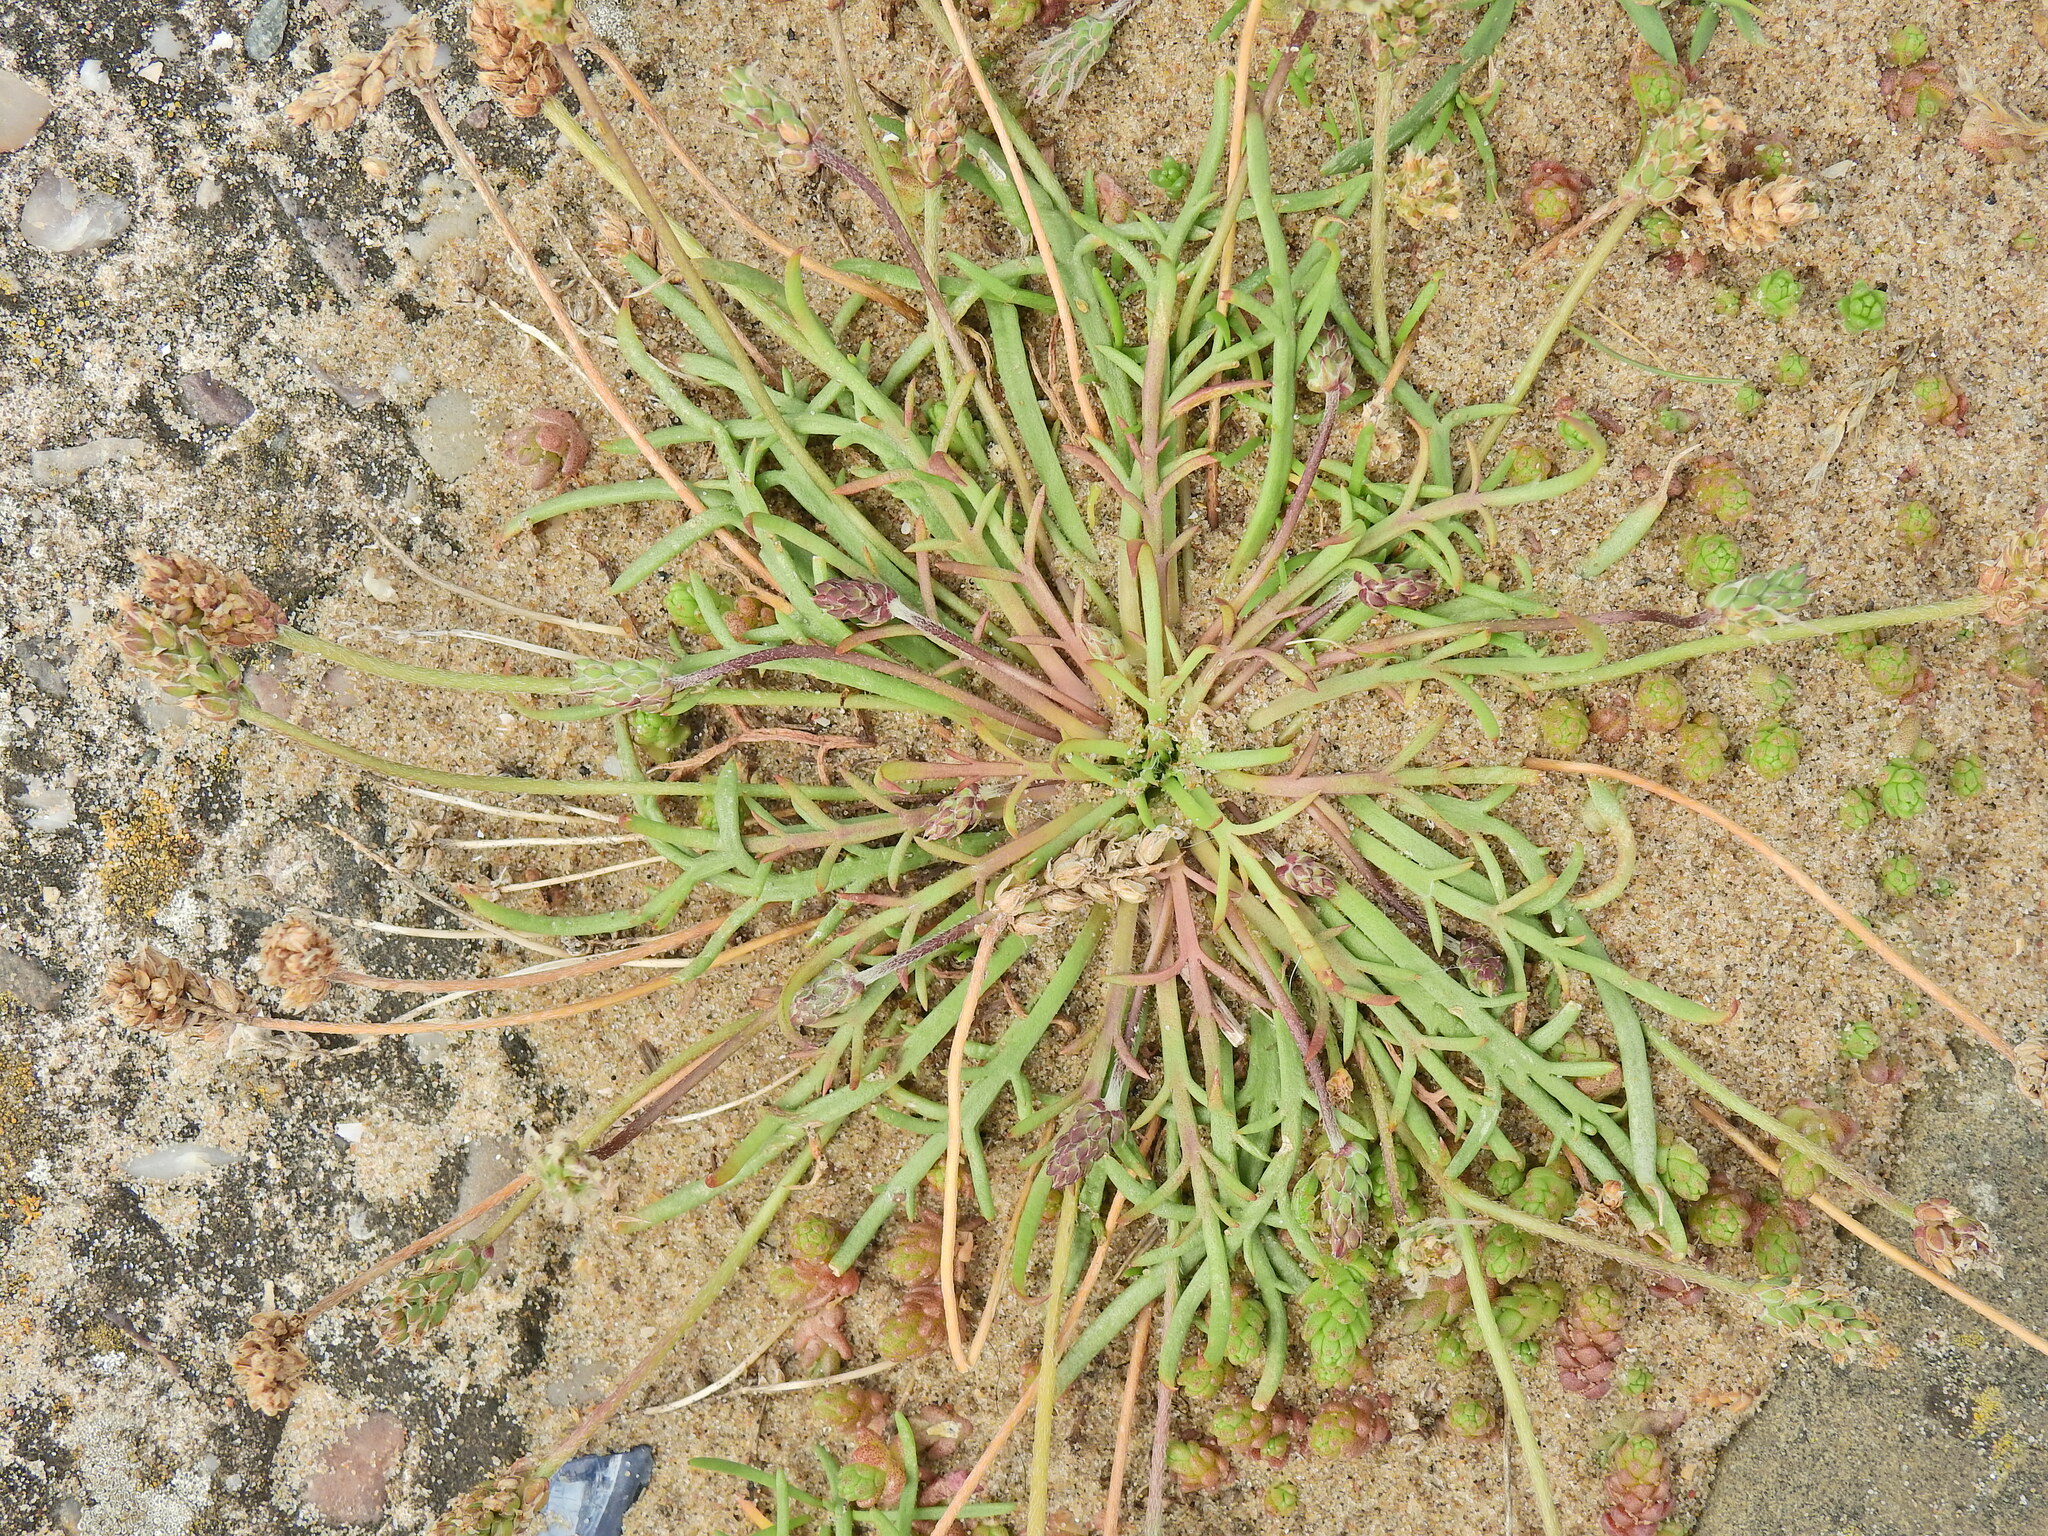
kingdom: Plantae
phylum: Tracheophyta
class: Magnoliopsida
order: Lamiales
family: Plantaginaceae
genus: Plantago
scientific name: Plantago coronopus
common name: Buck's-horn plantain
